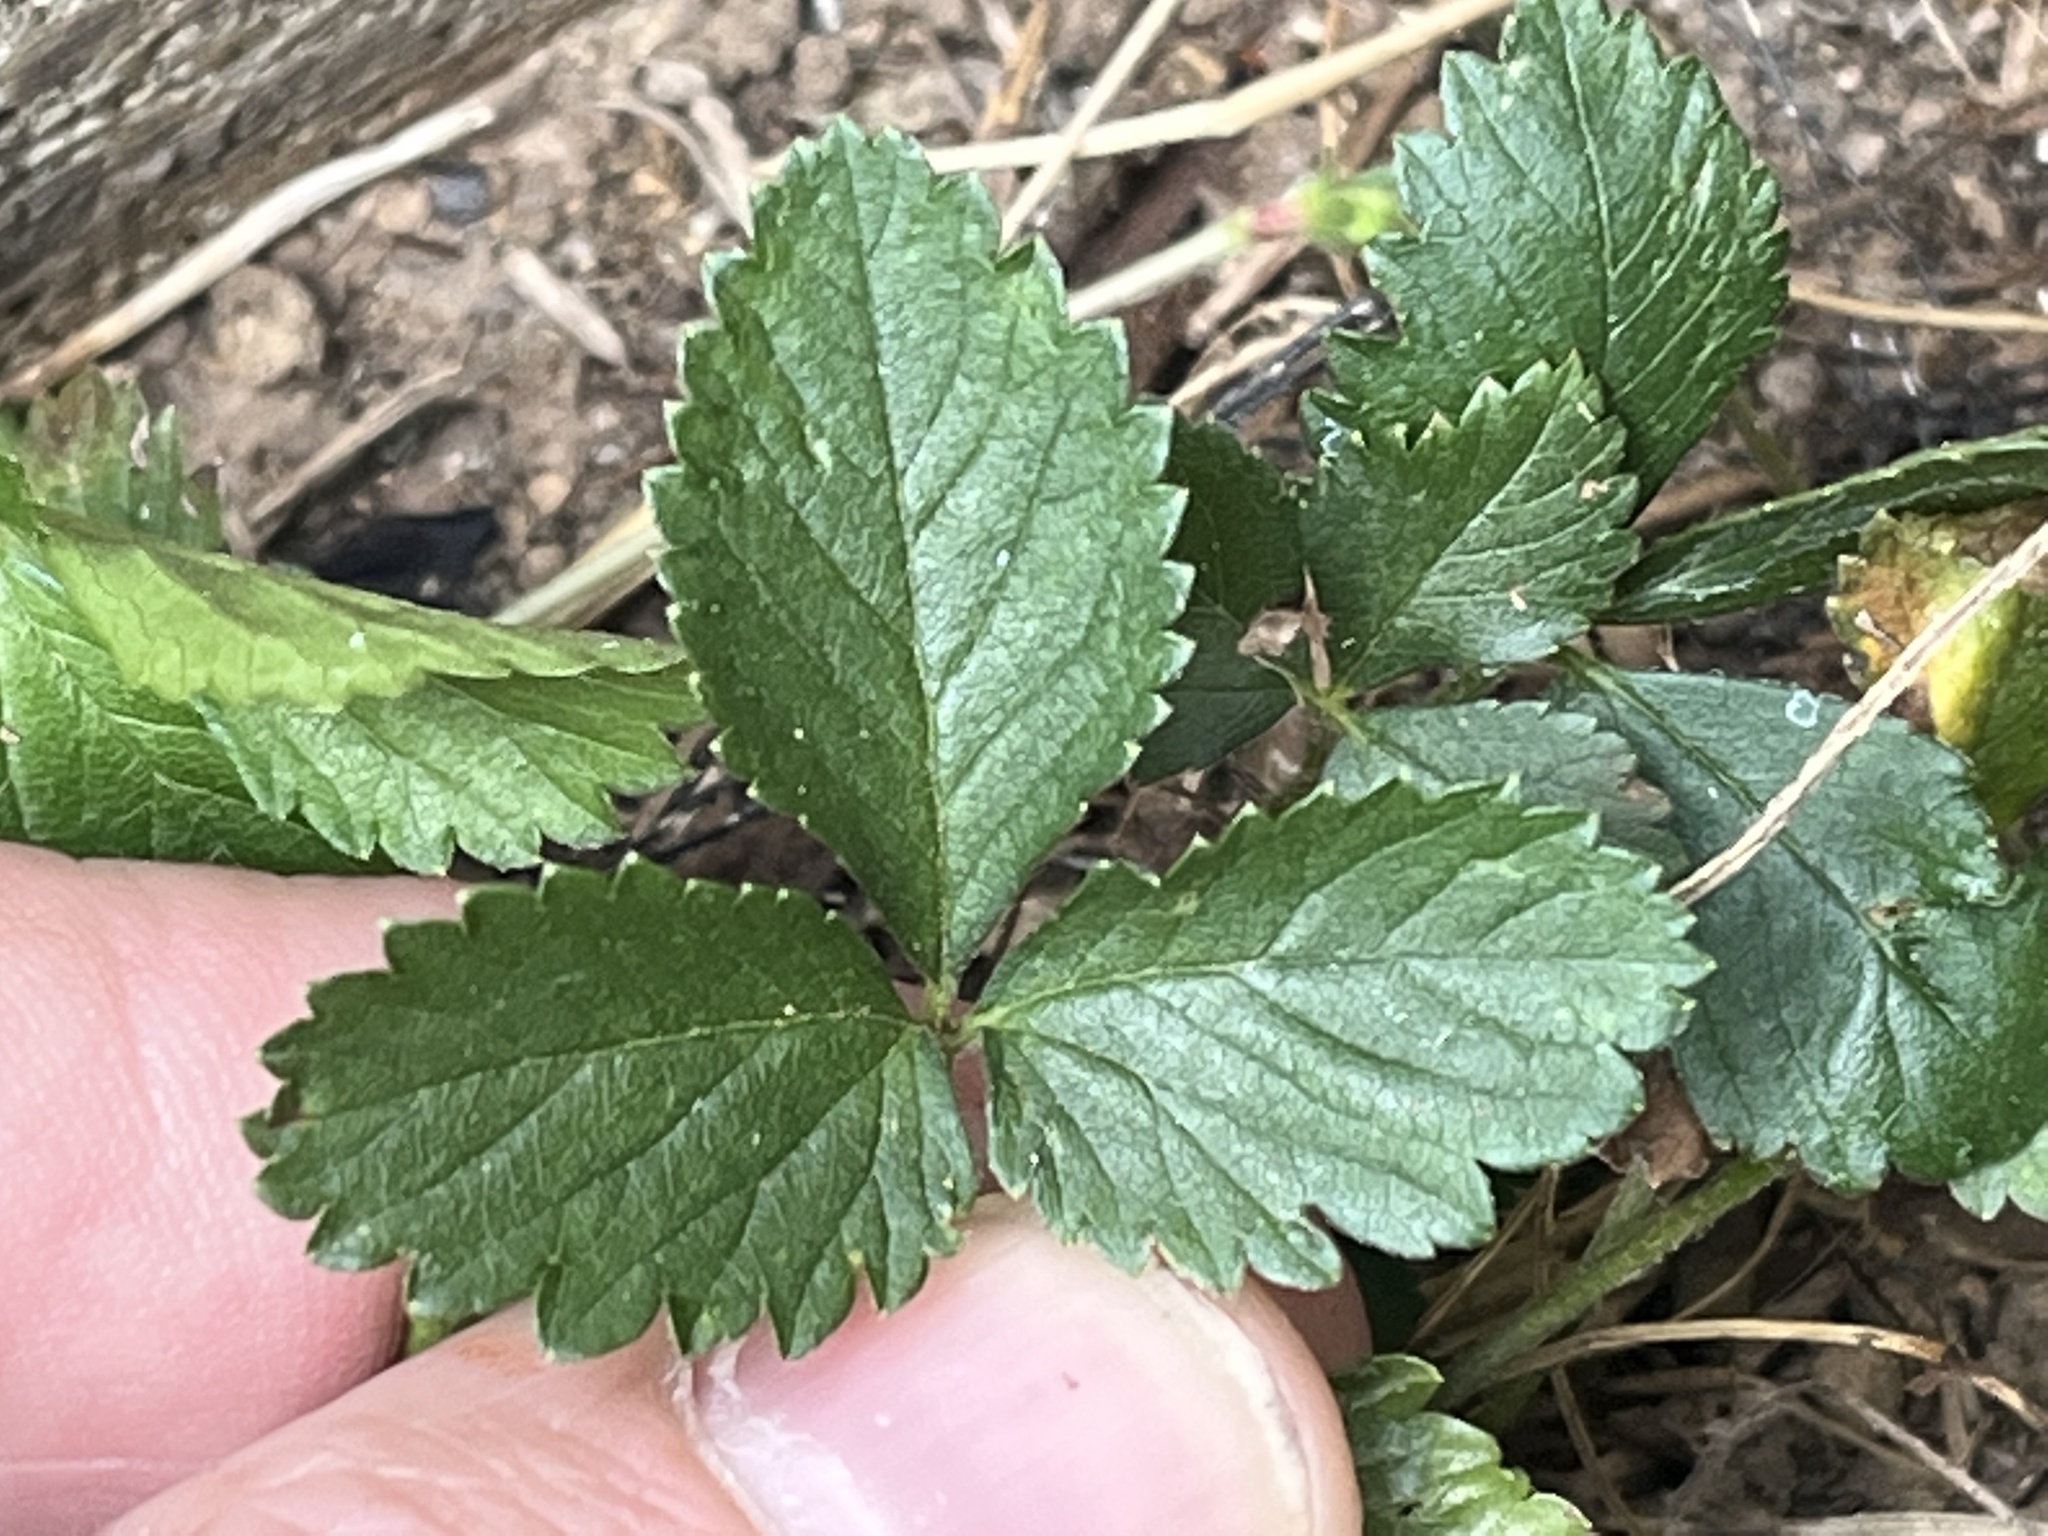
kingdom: Plantae
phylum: Tracheophyta
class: Magnoliopsida
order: Rosales
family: Rosaceae
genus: Potentilla
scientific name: Potentilla indica
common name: Yellow-flowered strawberry
